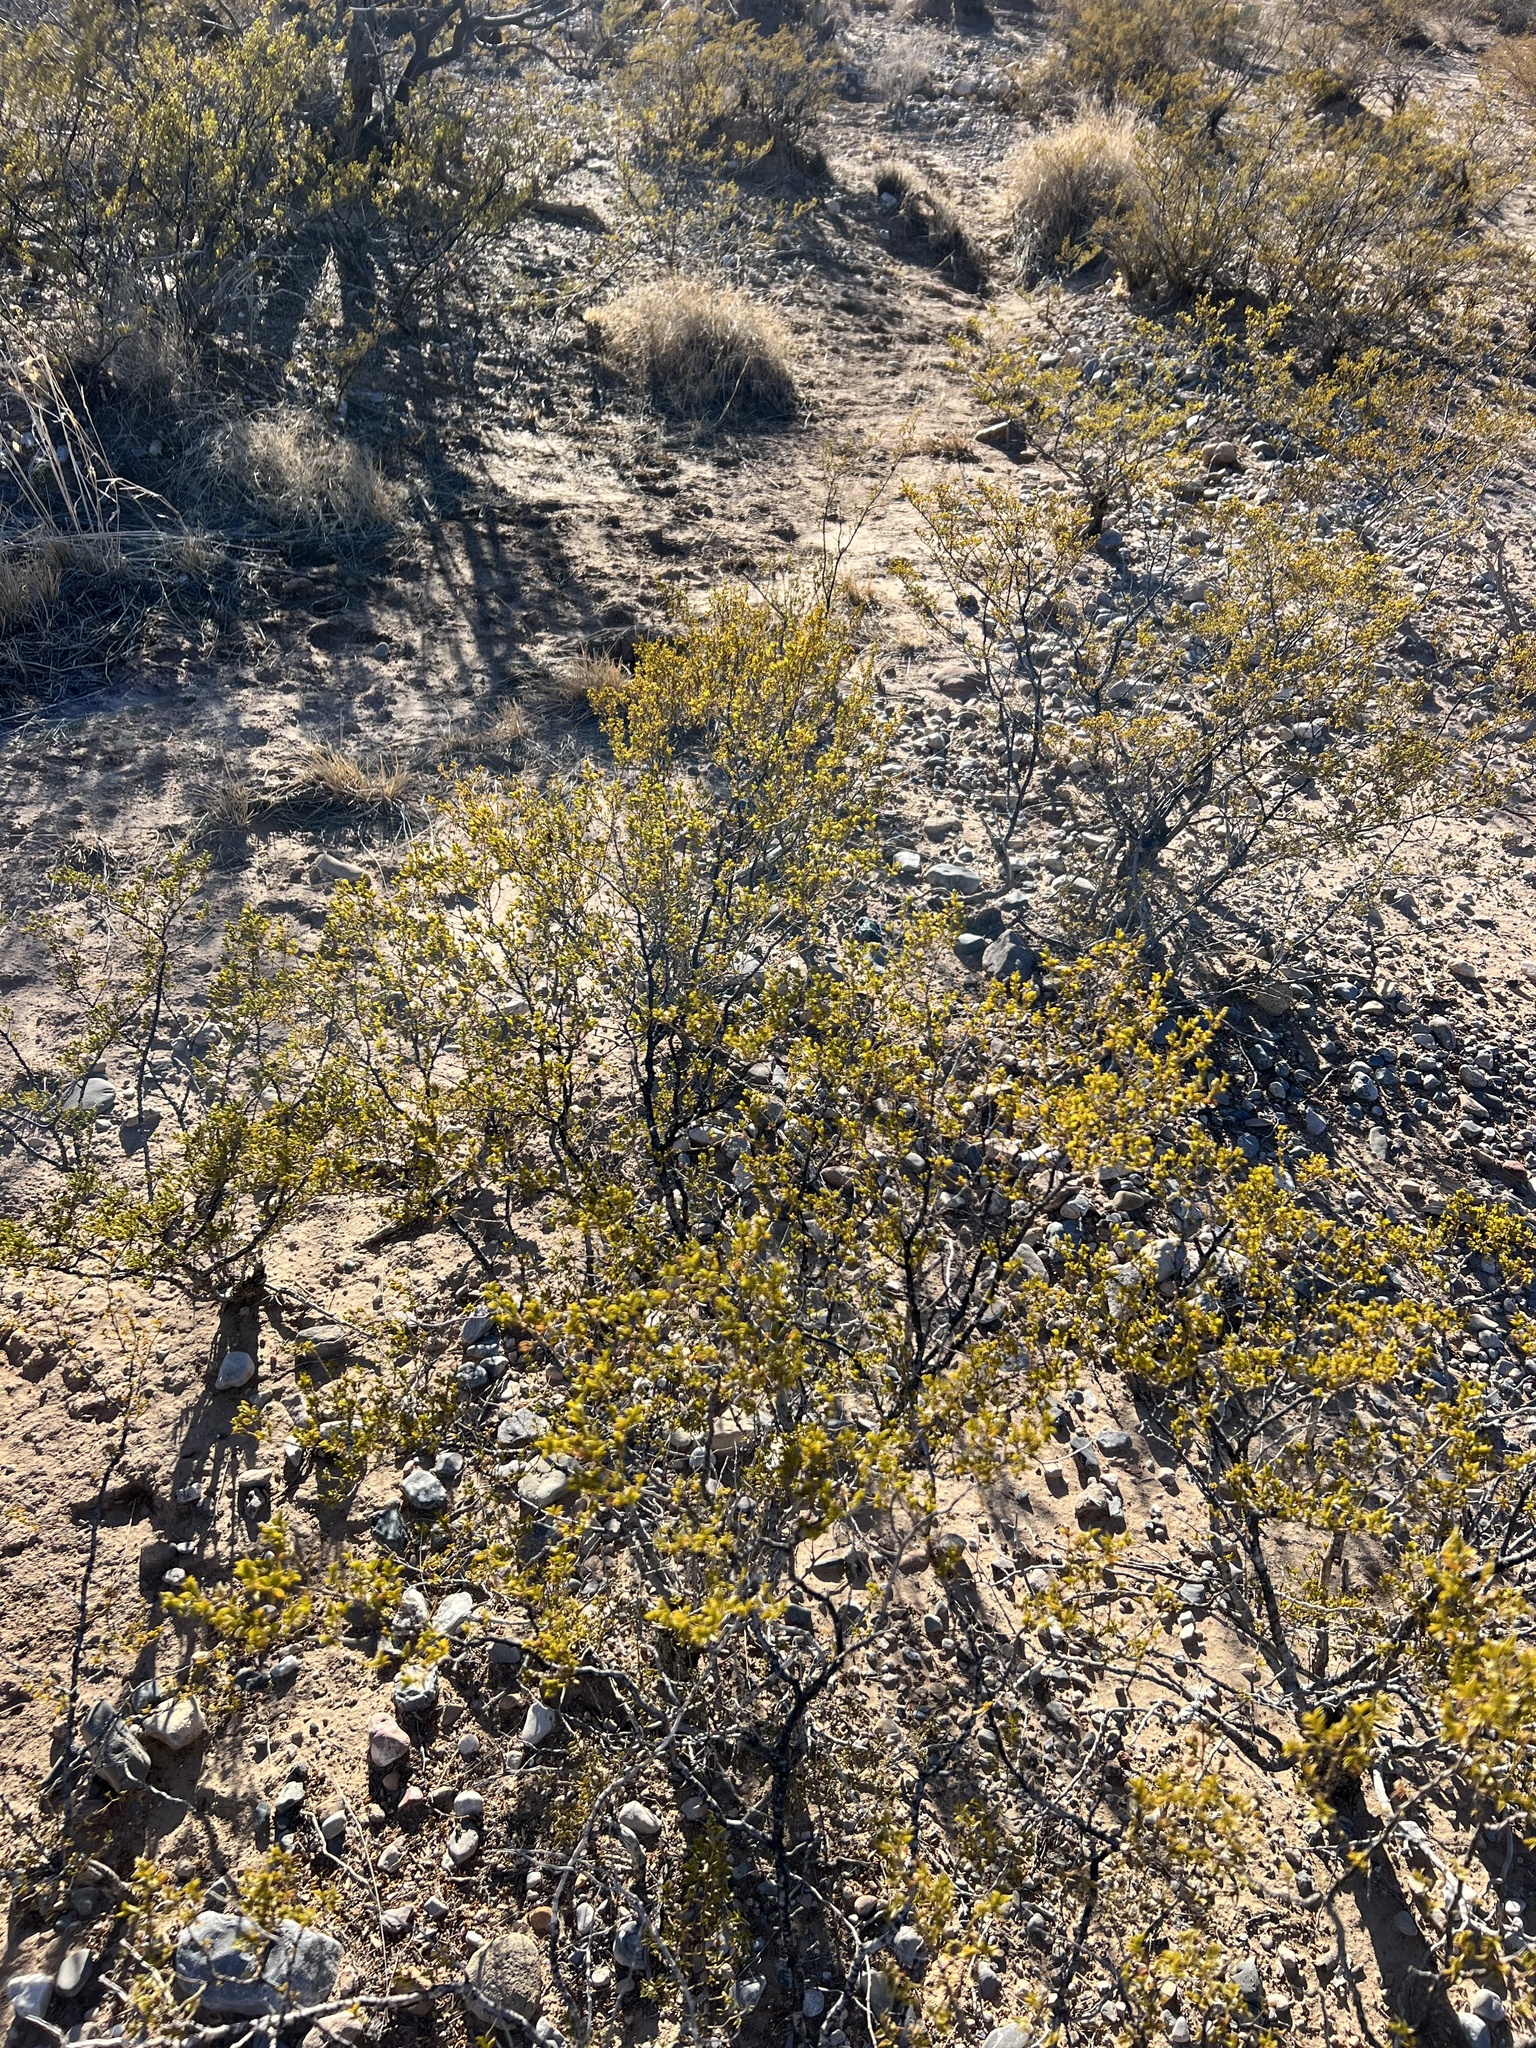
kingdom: Plantae
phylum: Tracheophyta
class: Magnoliopsida
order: Zygophyllales
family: Zygophyllaceae
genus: Larrea
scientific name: Larrea tridentata
